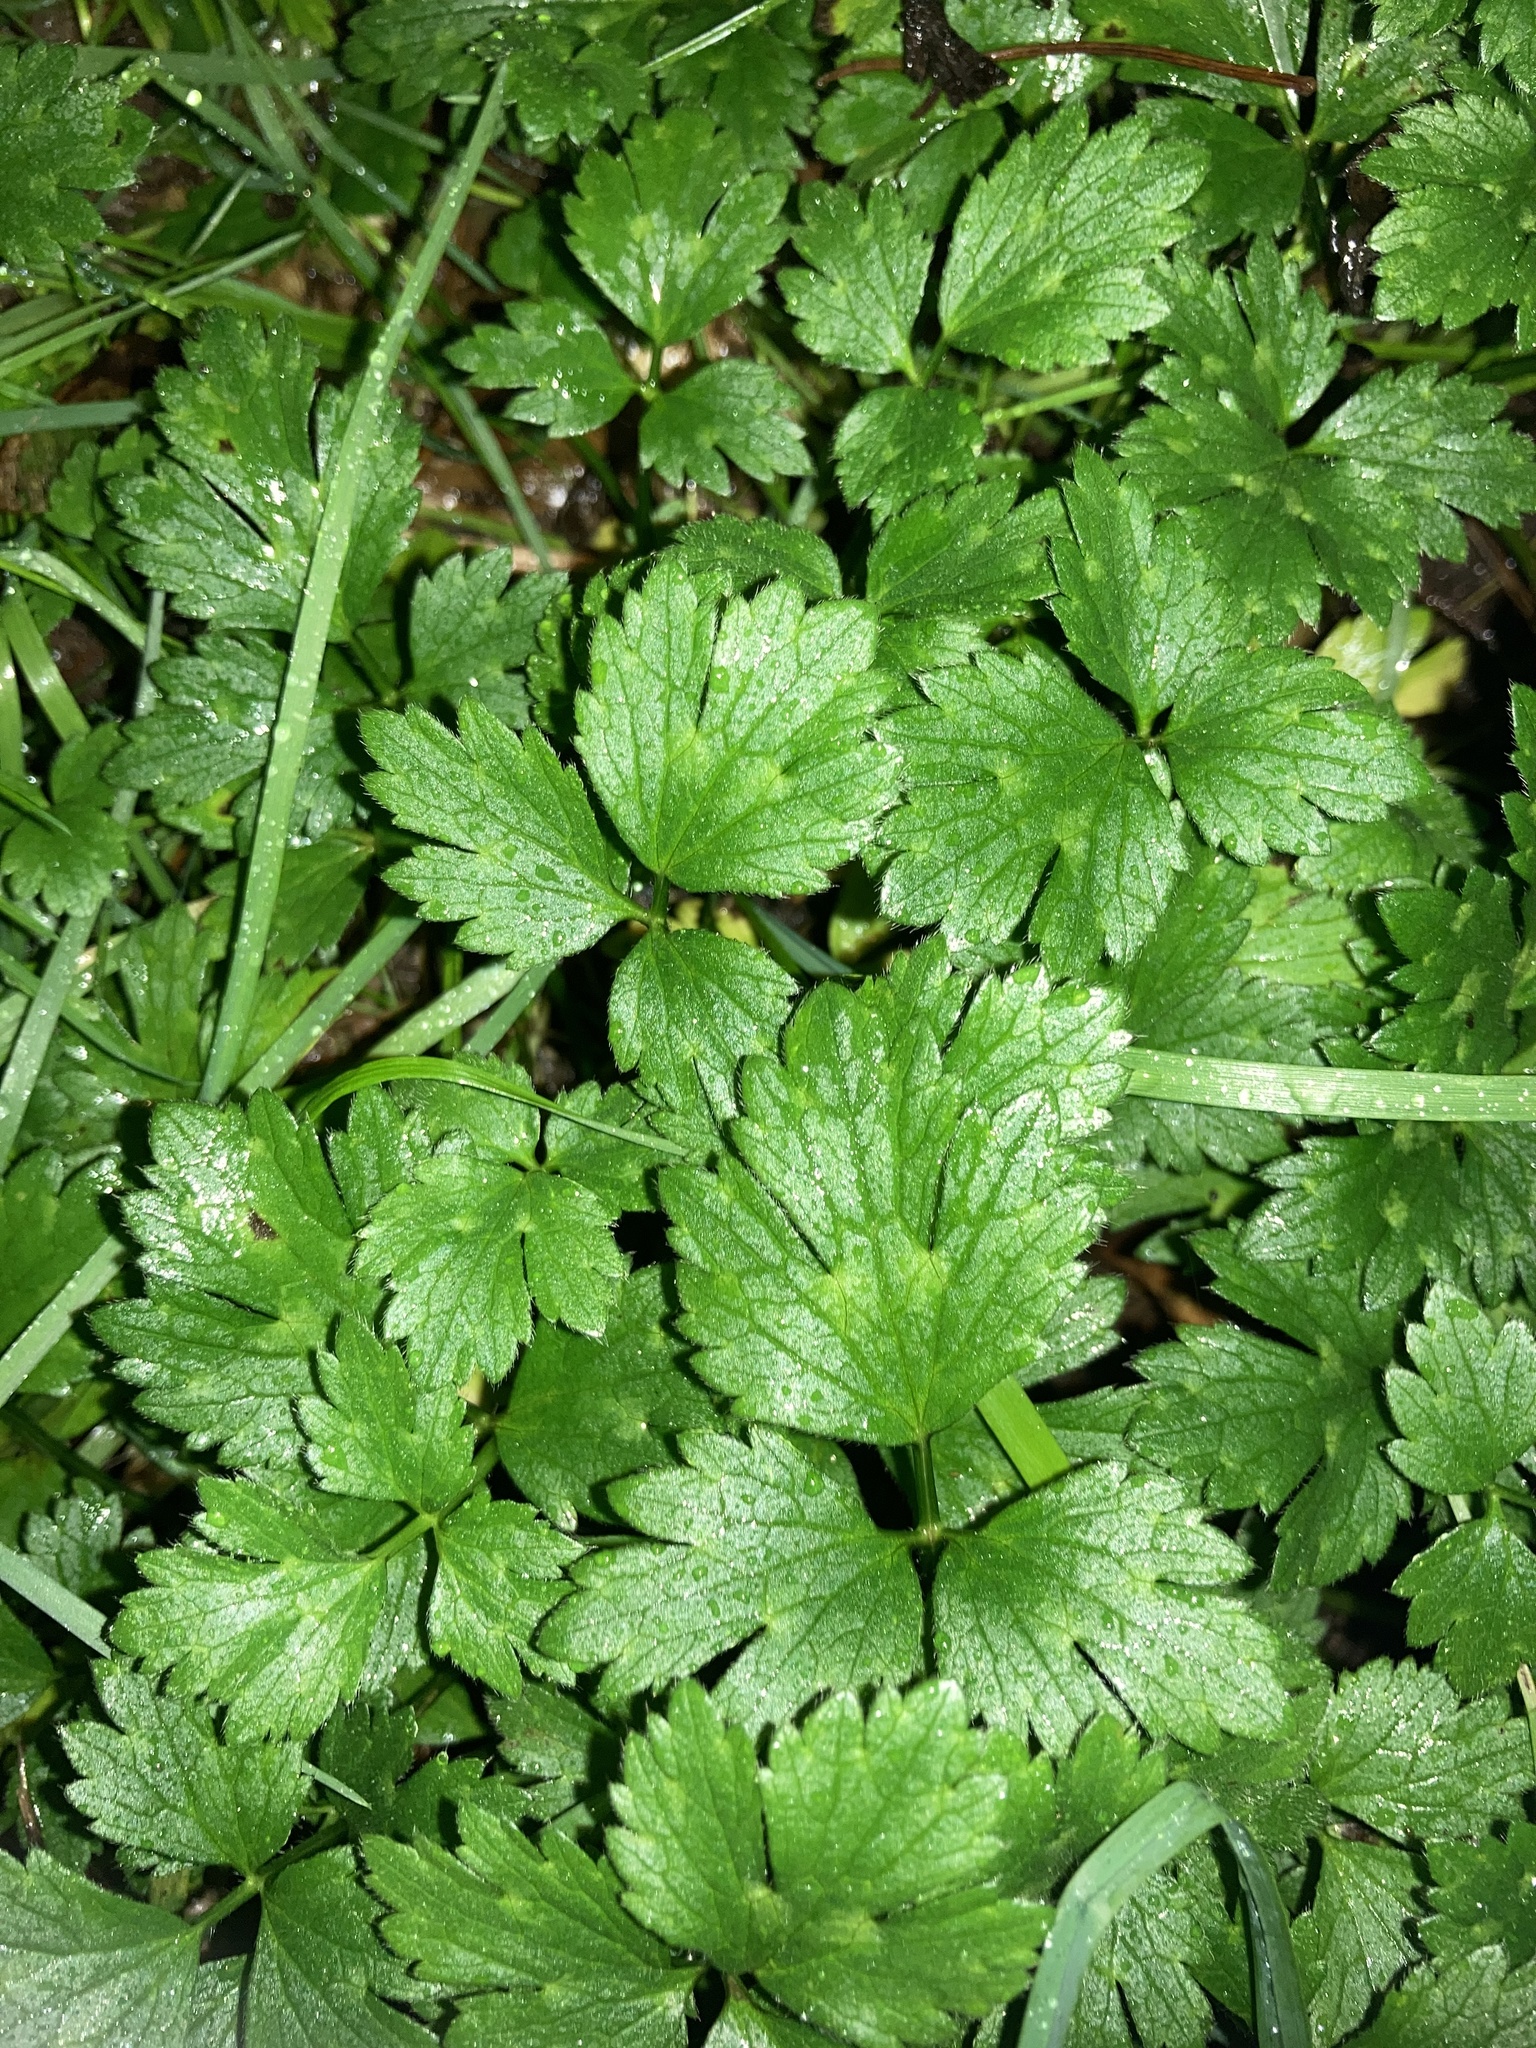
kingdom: Plantae
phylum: Tracheophyta
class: Magnoliopsida
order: Ranunculales
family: Ranunculaceae
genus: Ranunculus
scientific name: Ranunculus repens
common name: Creeping buttercup
